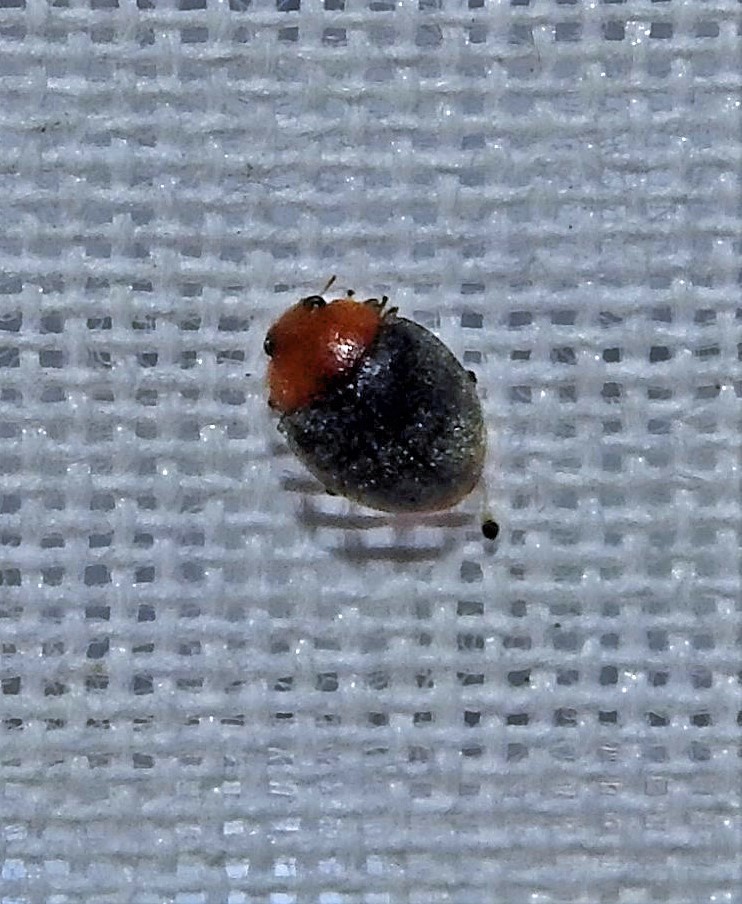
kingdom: Animalia
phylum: Arthropoda
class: Insecta
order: Coleoptera
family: Coccinellidae
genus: Cryptolaemus
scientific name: Cryptolaemus montrouzieri
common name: Mealybug destroyer
